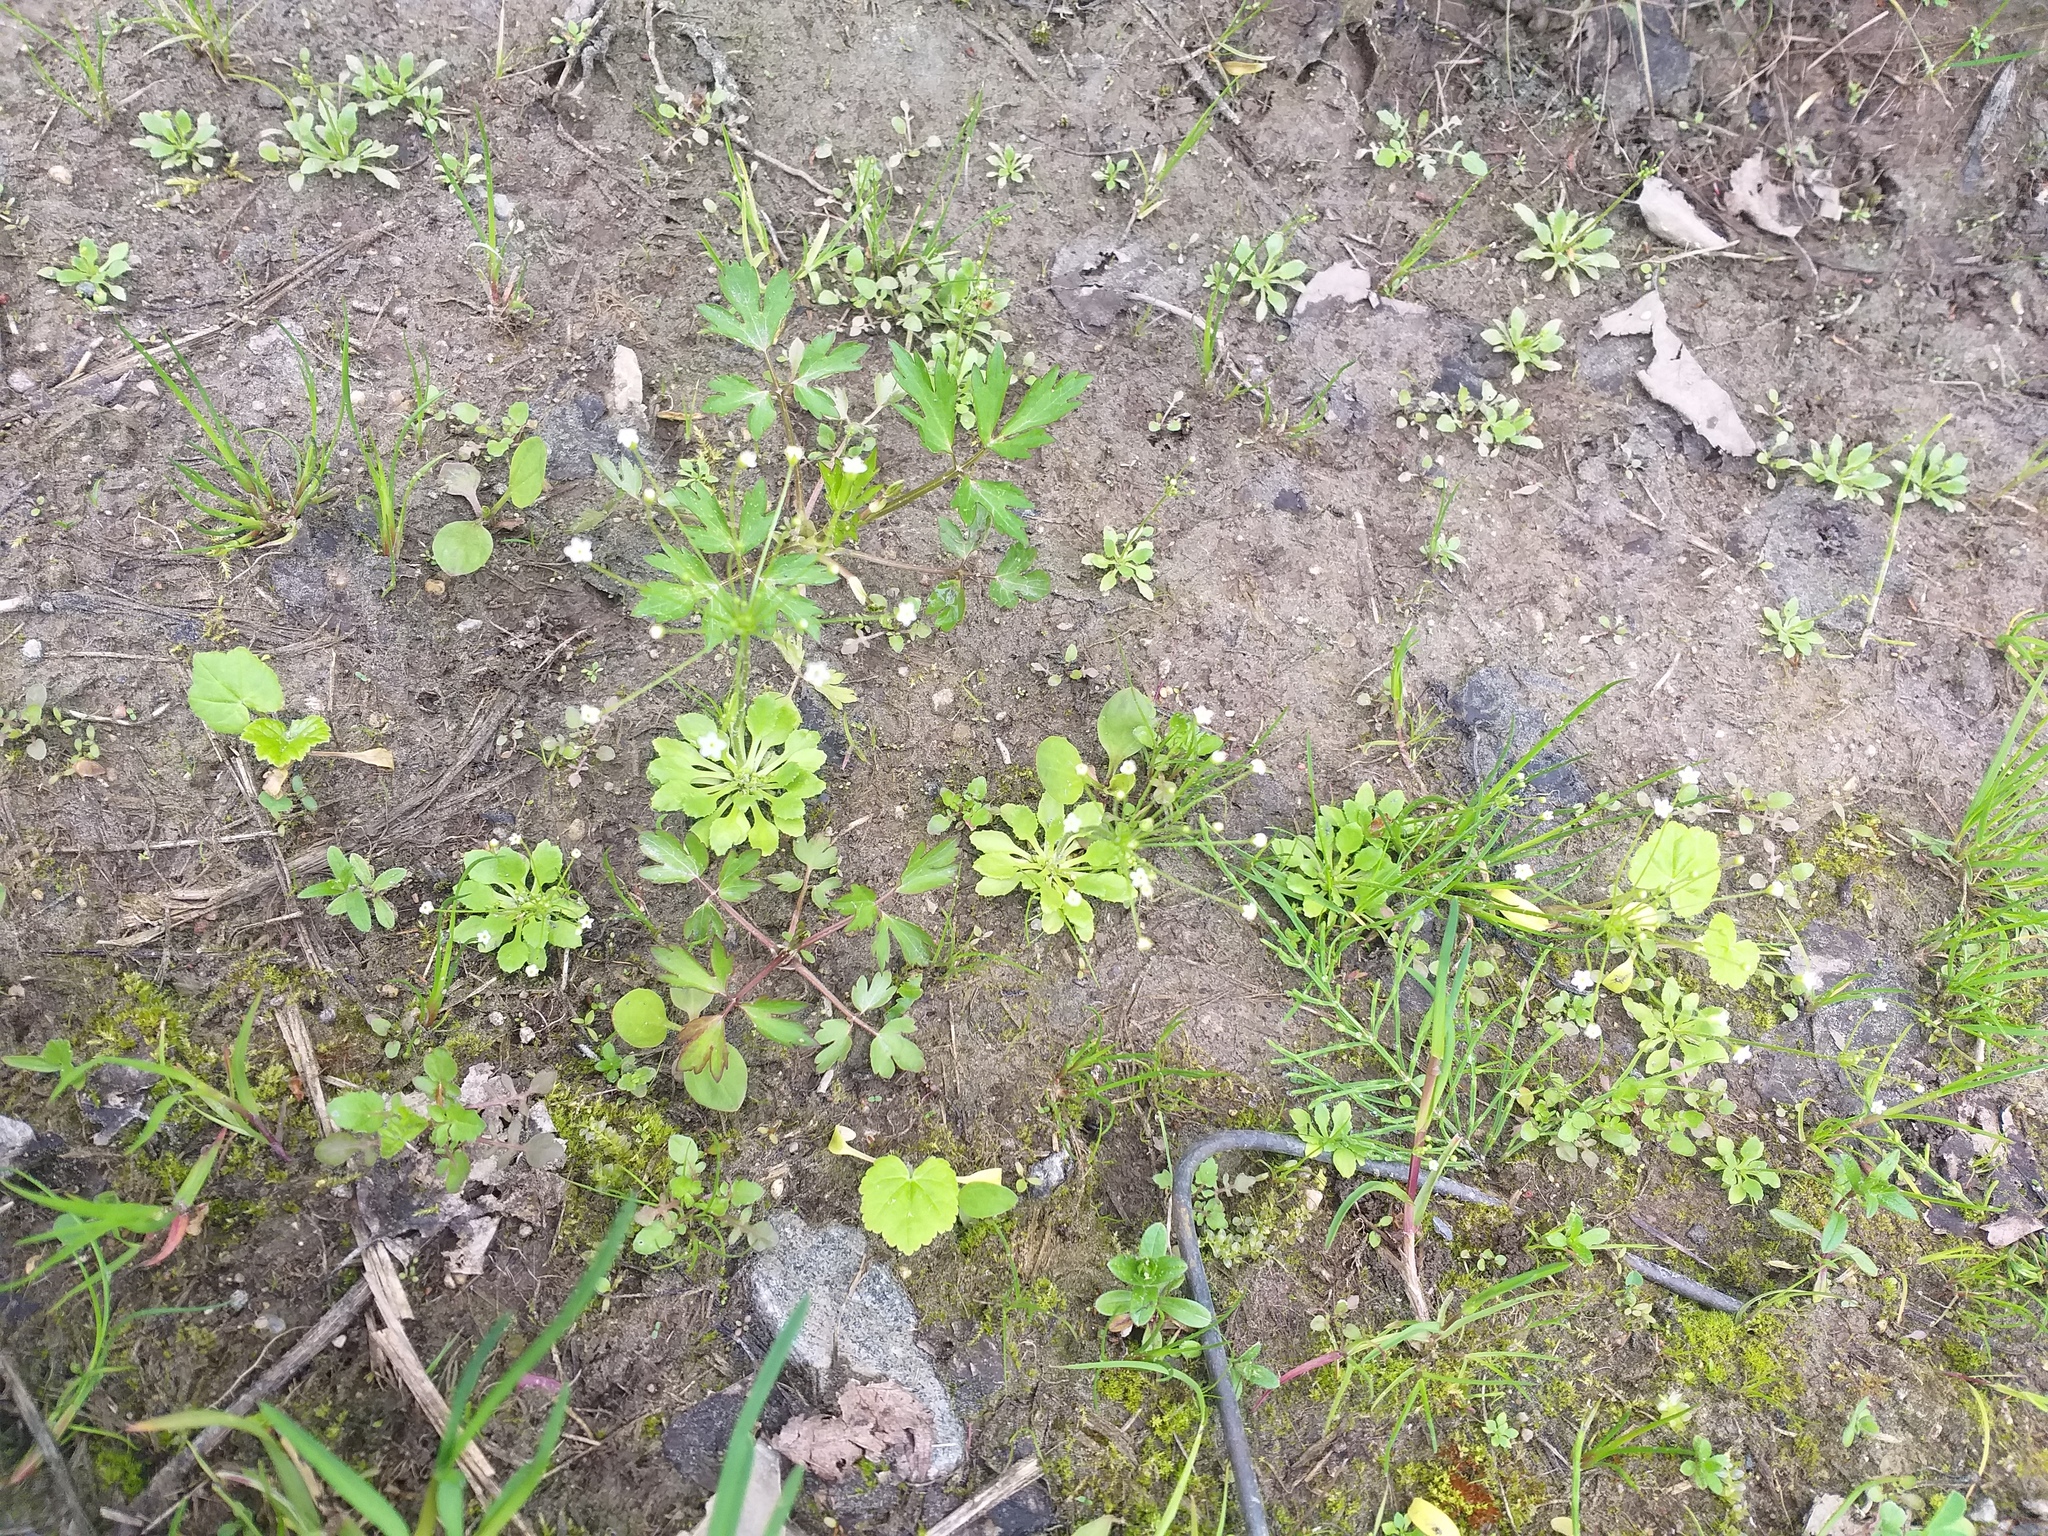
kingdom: Plantae
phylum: Tracheophyta
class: Magnoliopsida
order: Ericales
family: Primulaceae
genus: Androsace
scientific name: Androsace filiformis
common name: Filiform rock jasmine
